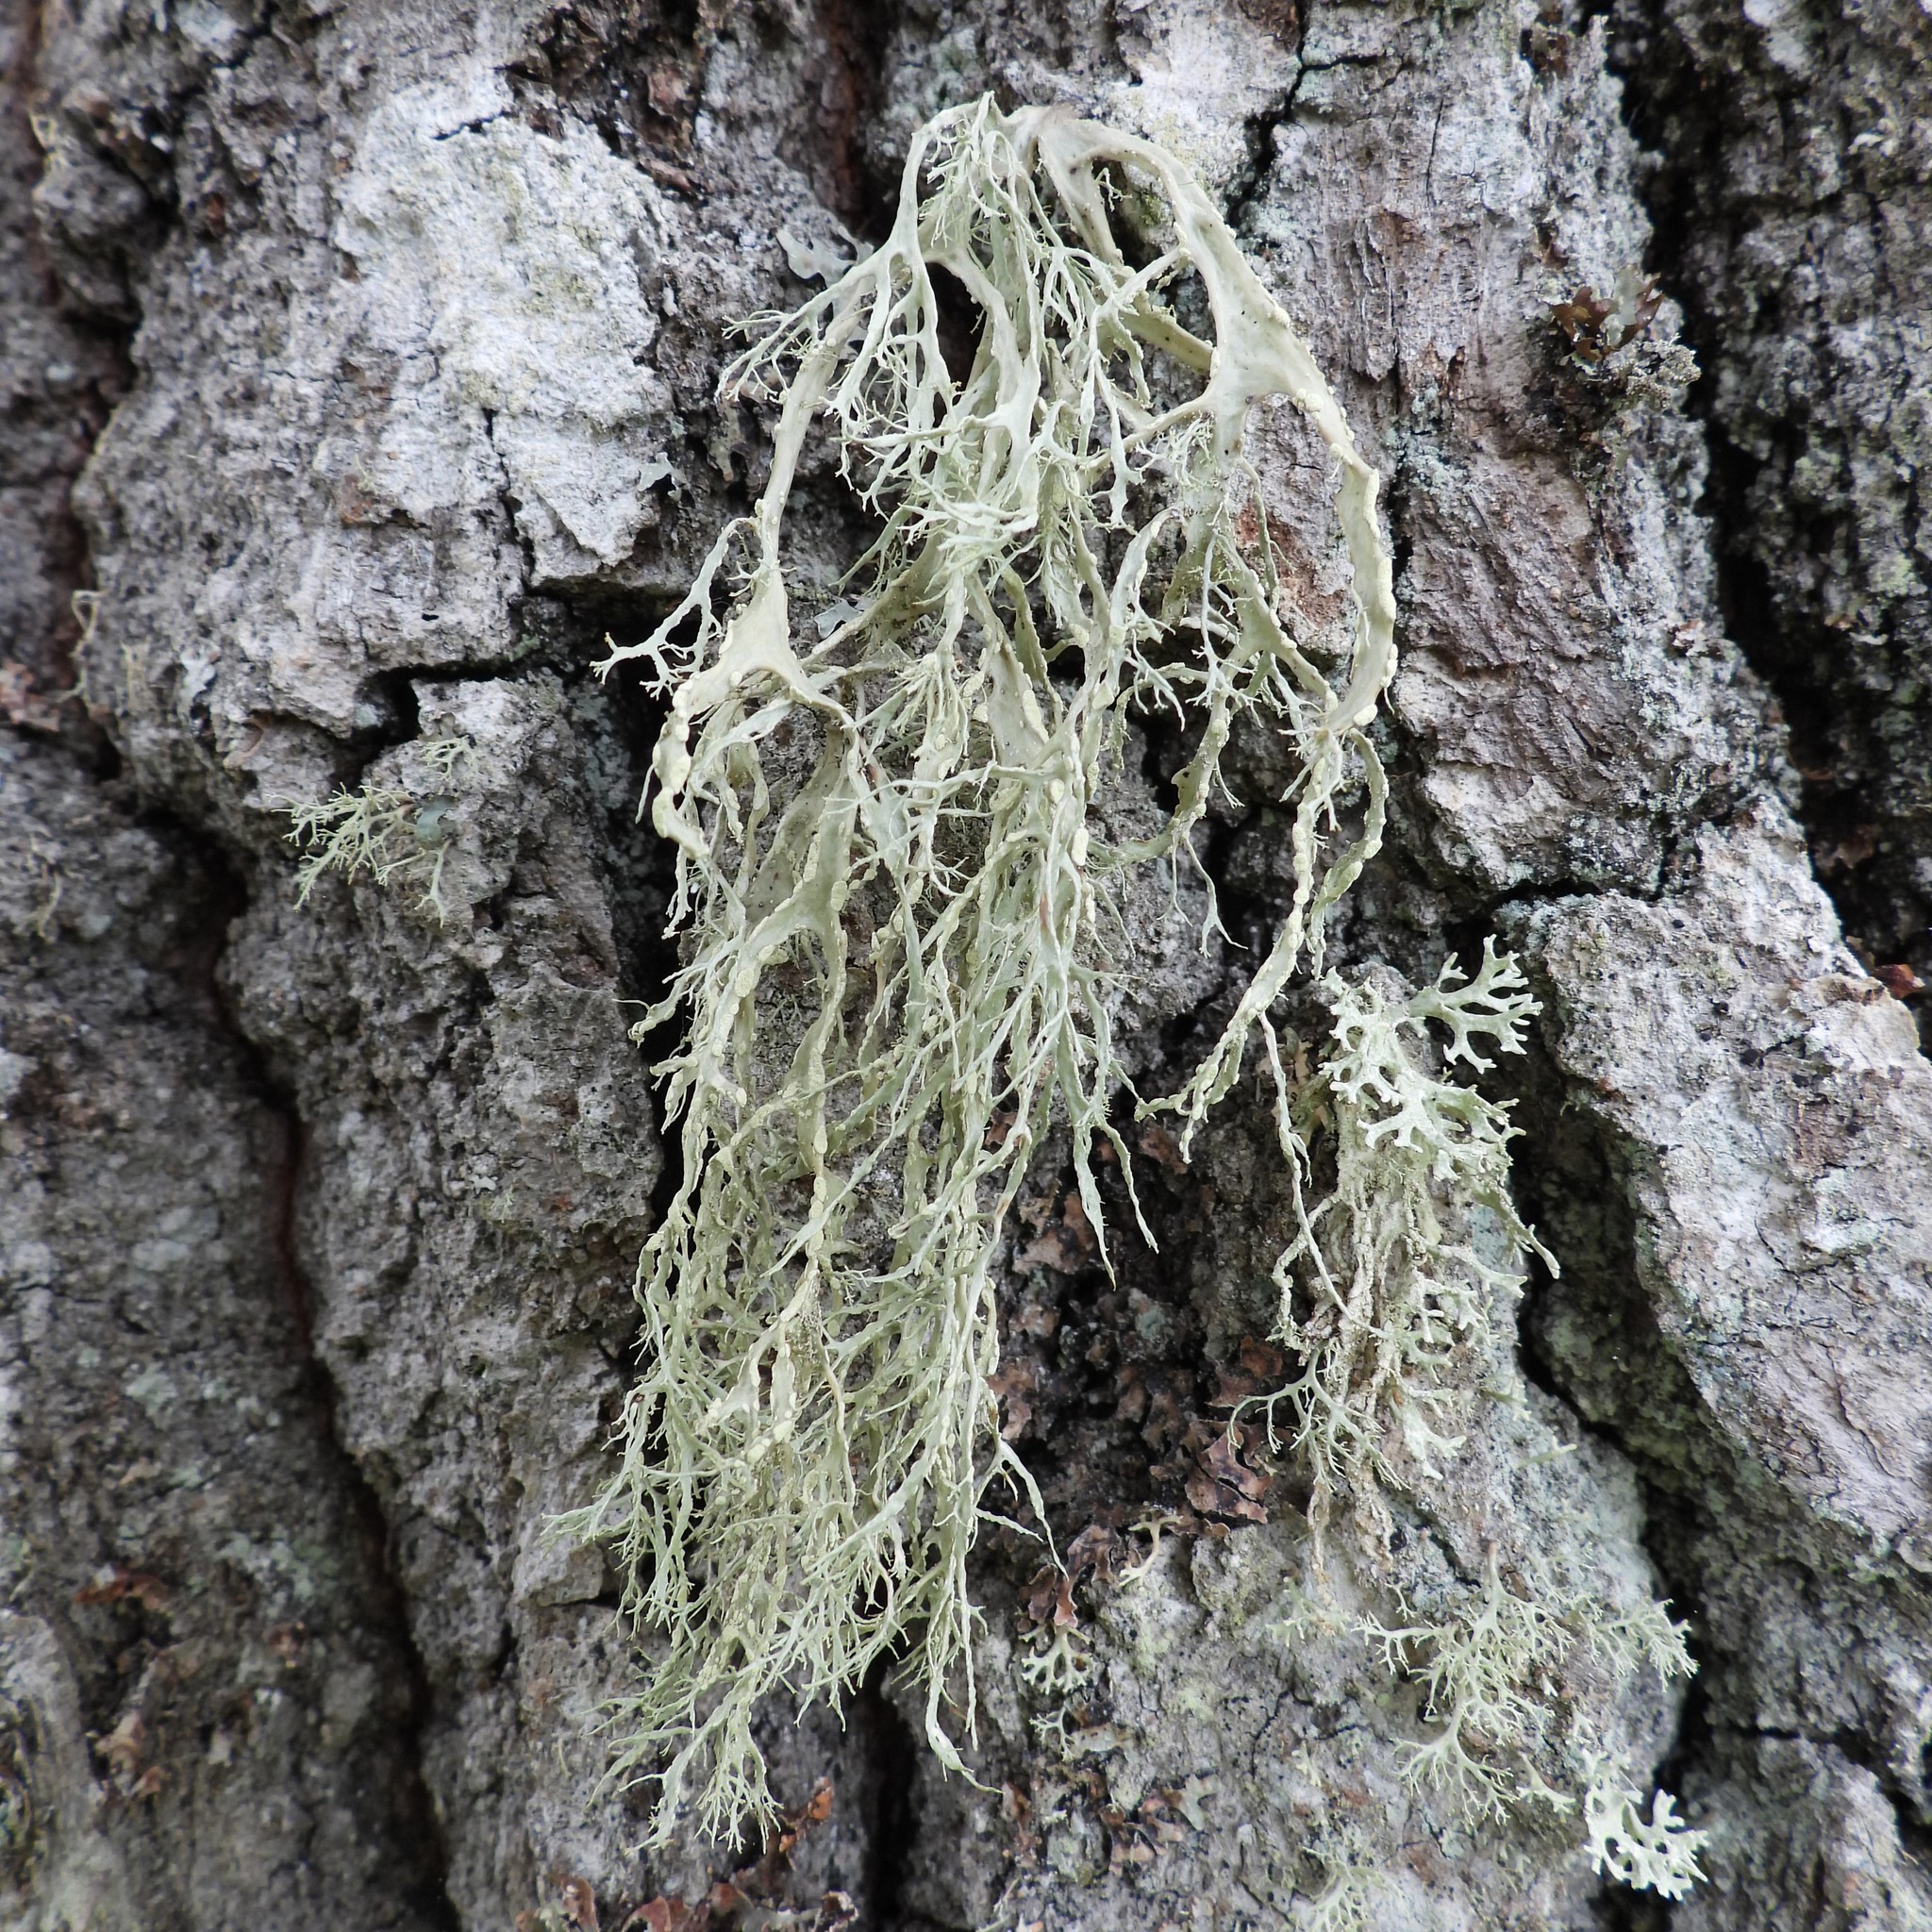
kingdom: Fungi
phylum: Ascomycota
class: Lecanoromycetes
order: Lecanorales
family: Ramalinaceae
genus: Ramalina
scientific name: Ramalina farinacea
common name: Farinose cartilage lichen
